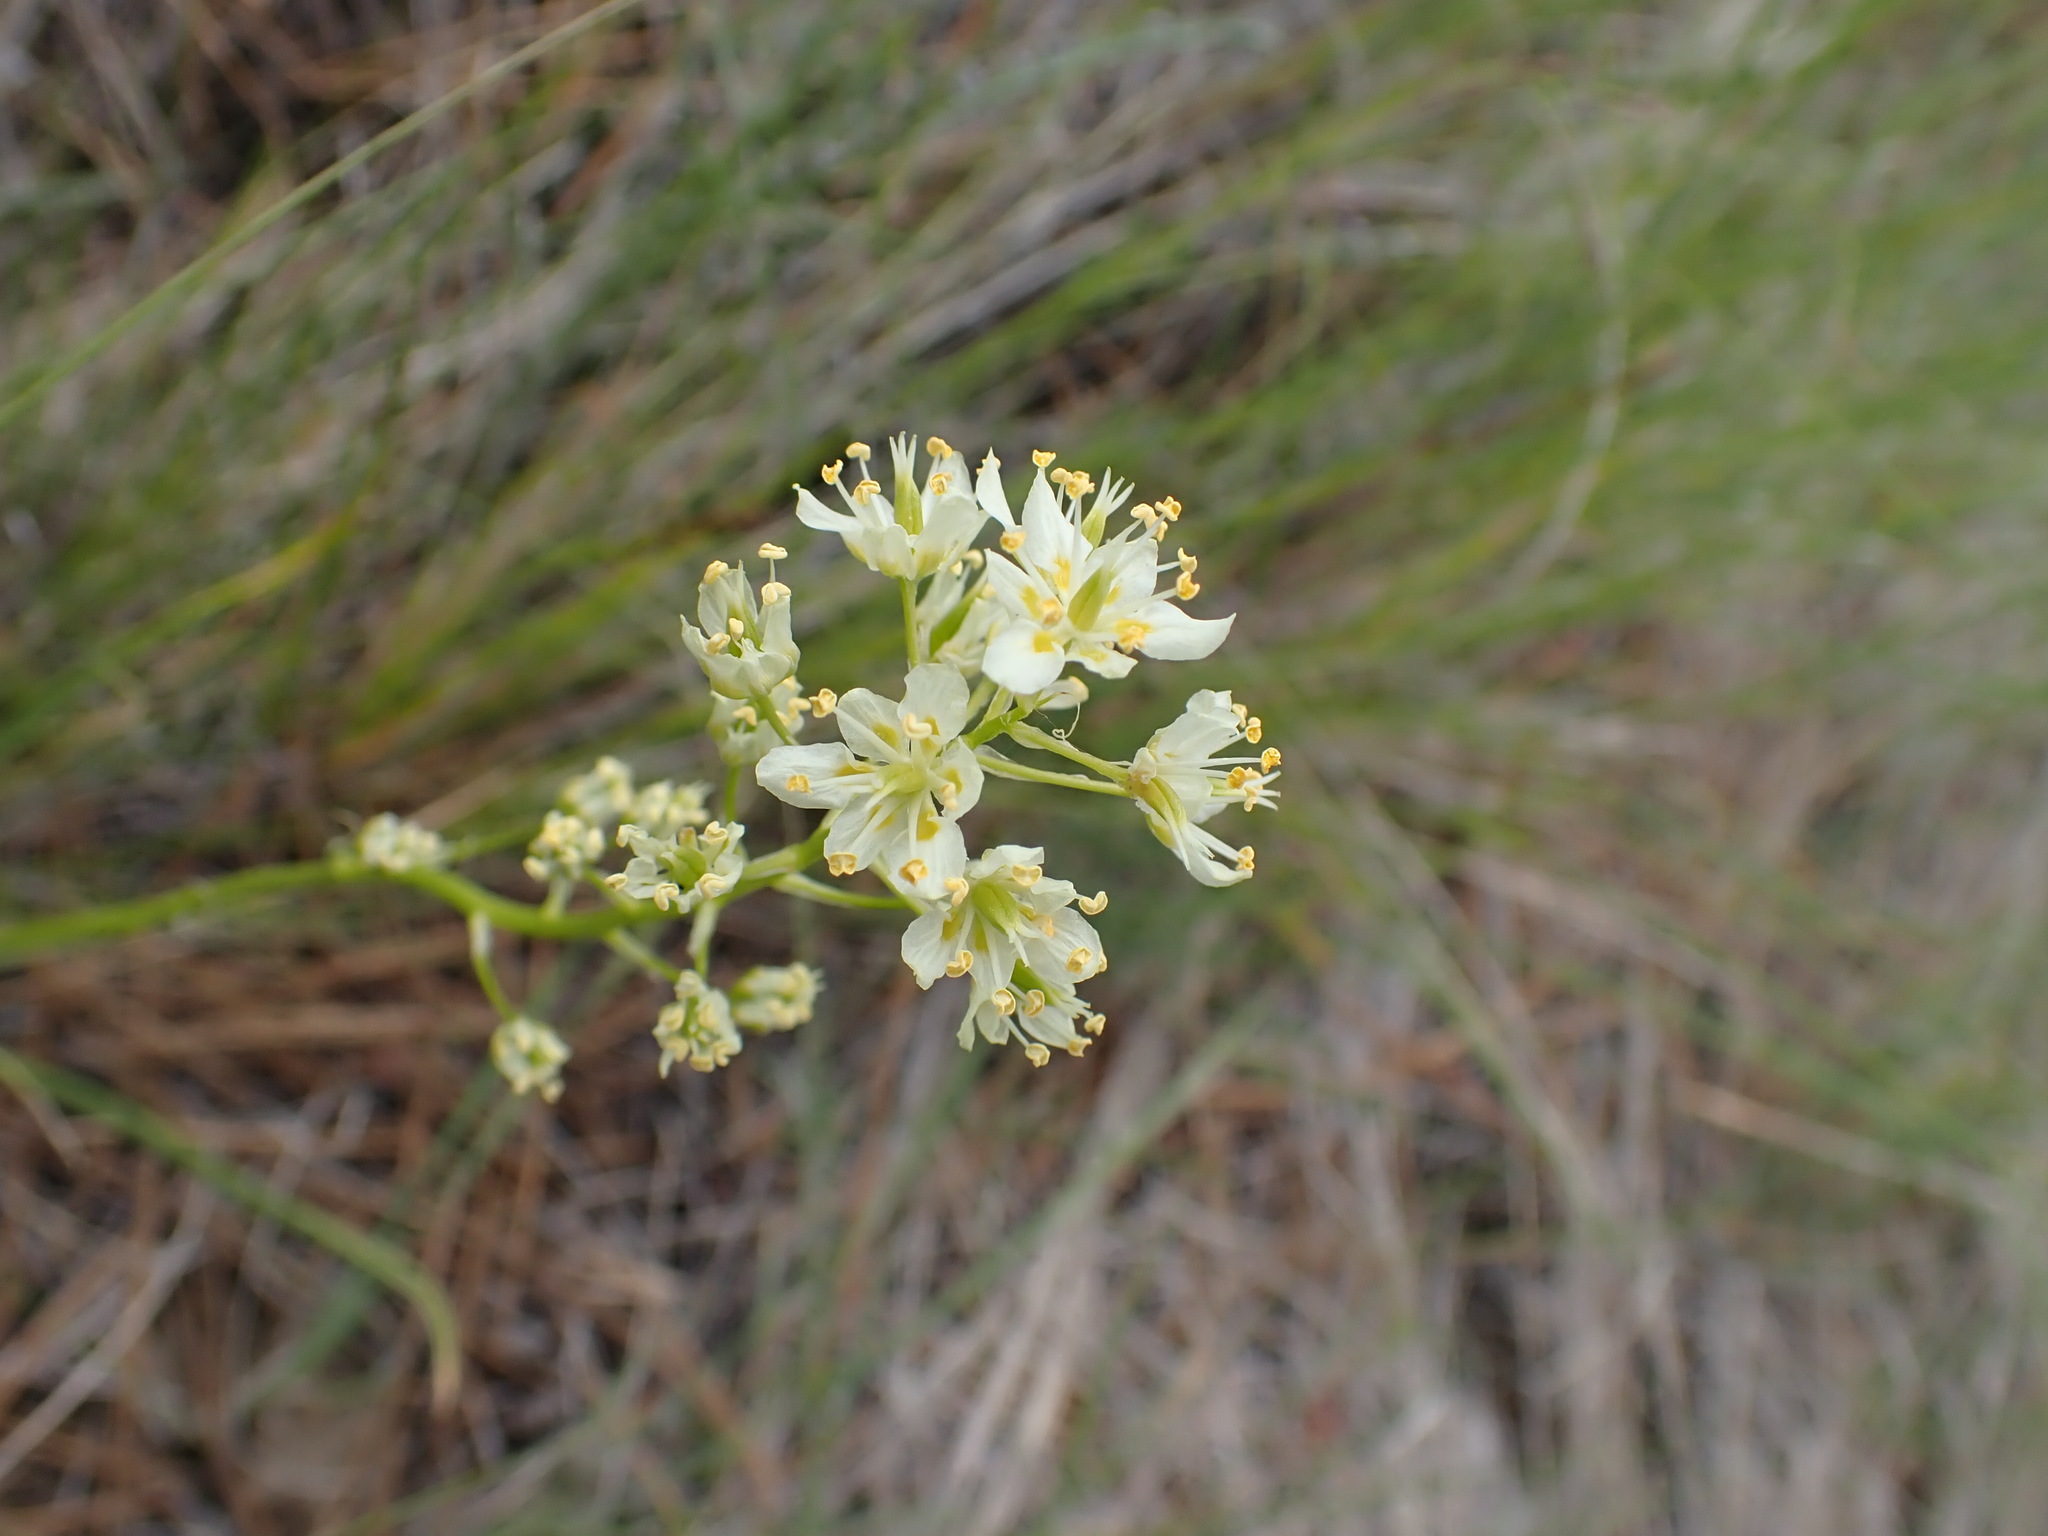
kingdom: Plantae
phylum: Tracheophyta
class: Liliopsida
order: Liliales
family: Melanthiaceae
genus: Toxicoscordion
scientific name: Toxicoscordion venenosum
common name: Meadow death camas
